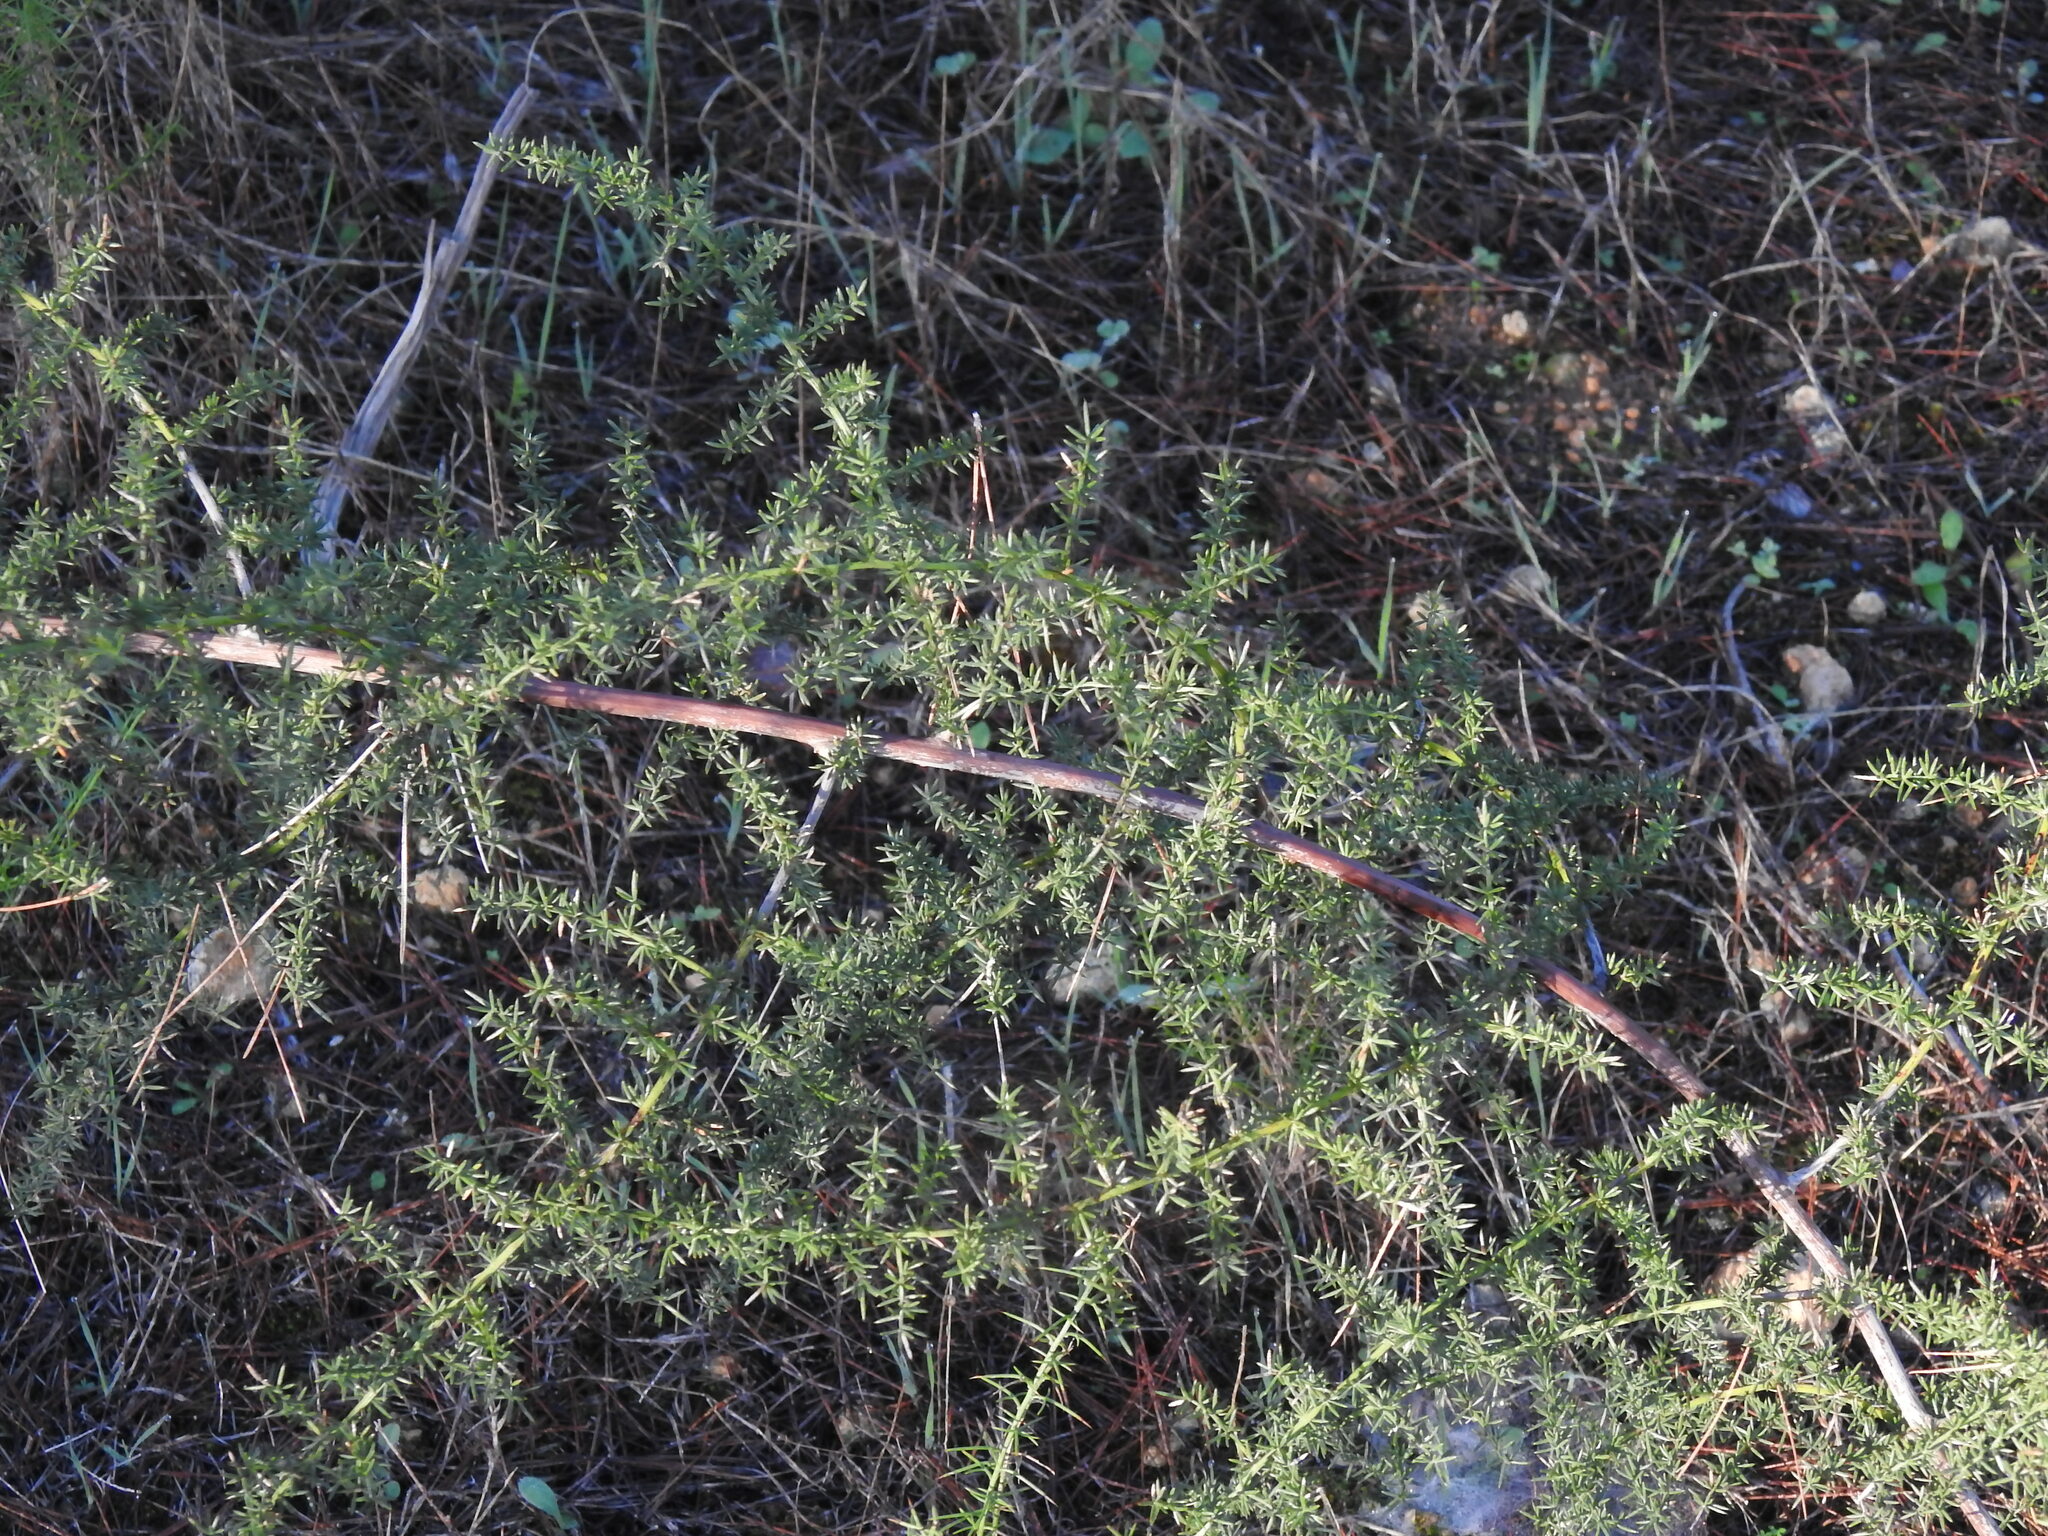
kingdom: Plantae
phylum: Tracheophyta
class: Liliopsida
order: Asparagales
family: Asparagaceae
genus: Asparagus
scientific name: Asparagus acutifolius
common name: Wild asparagus
